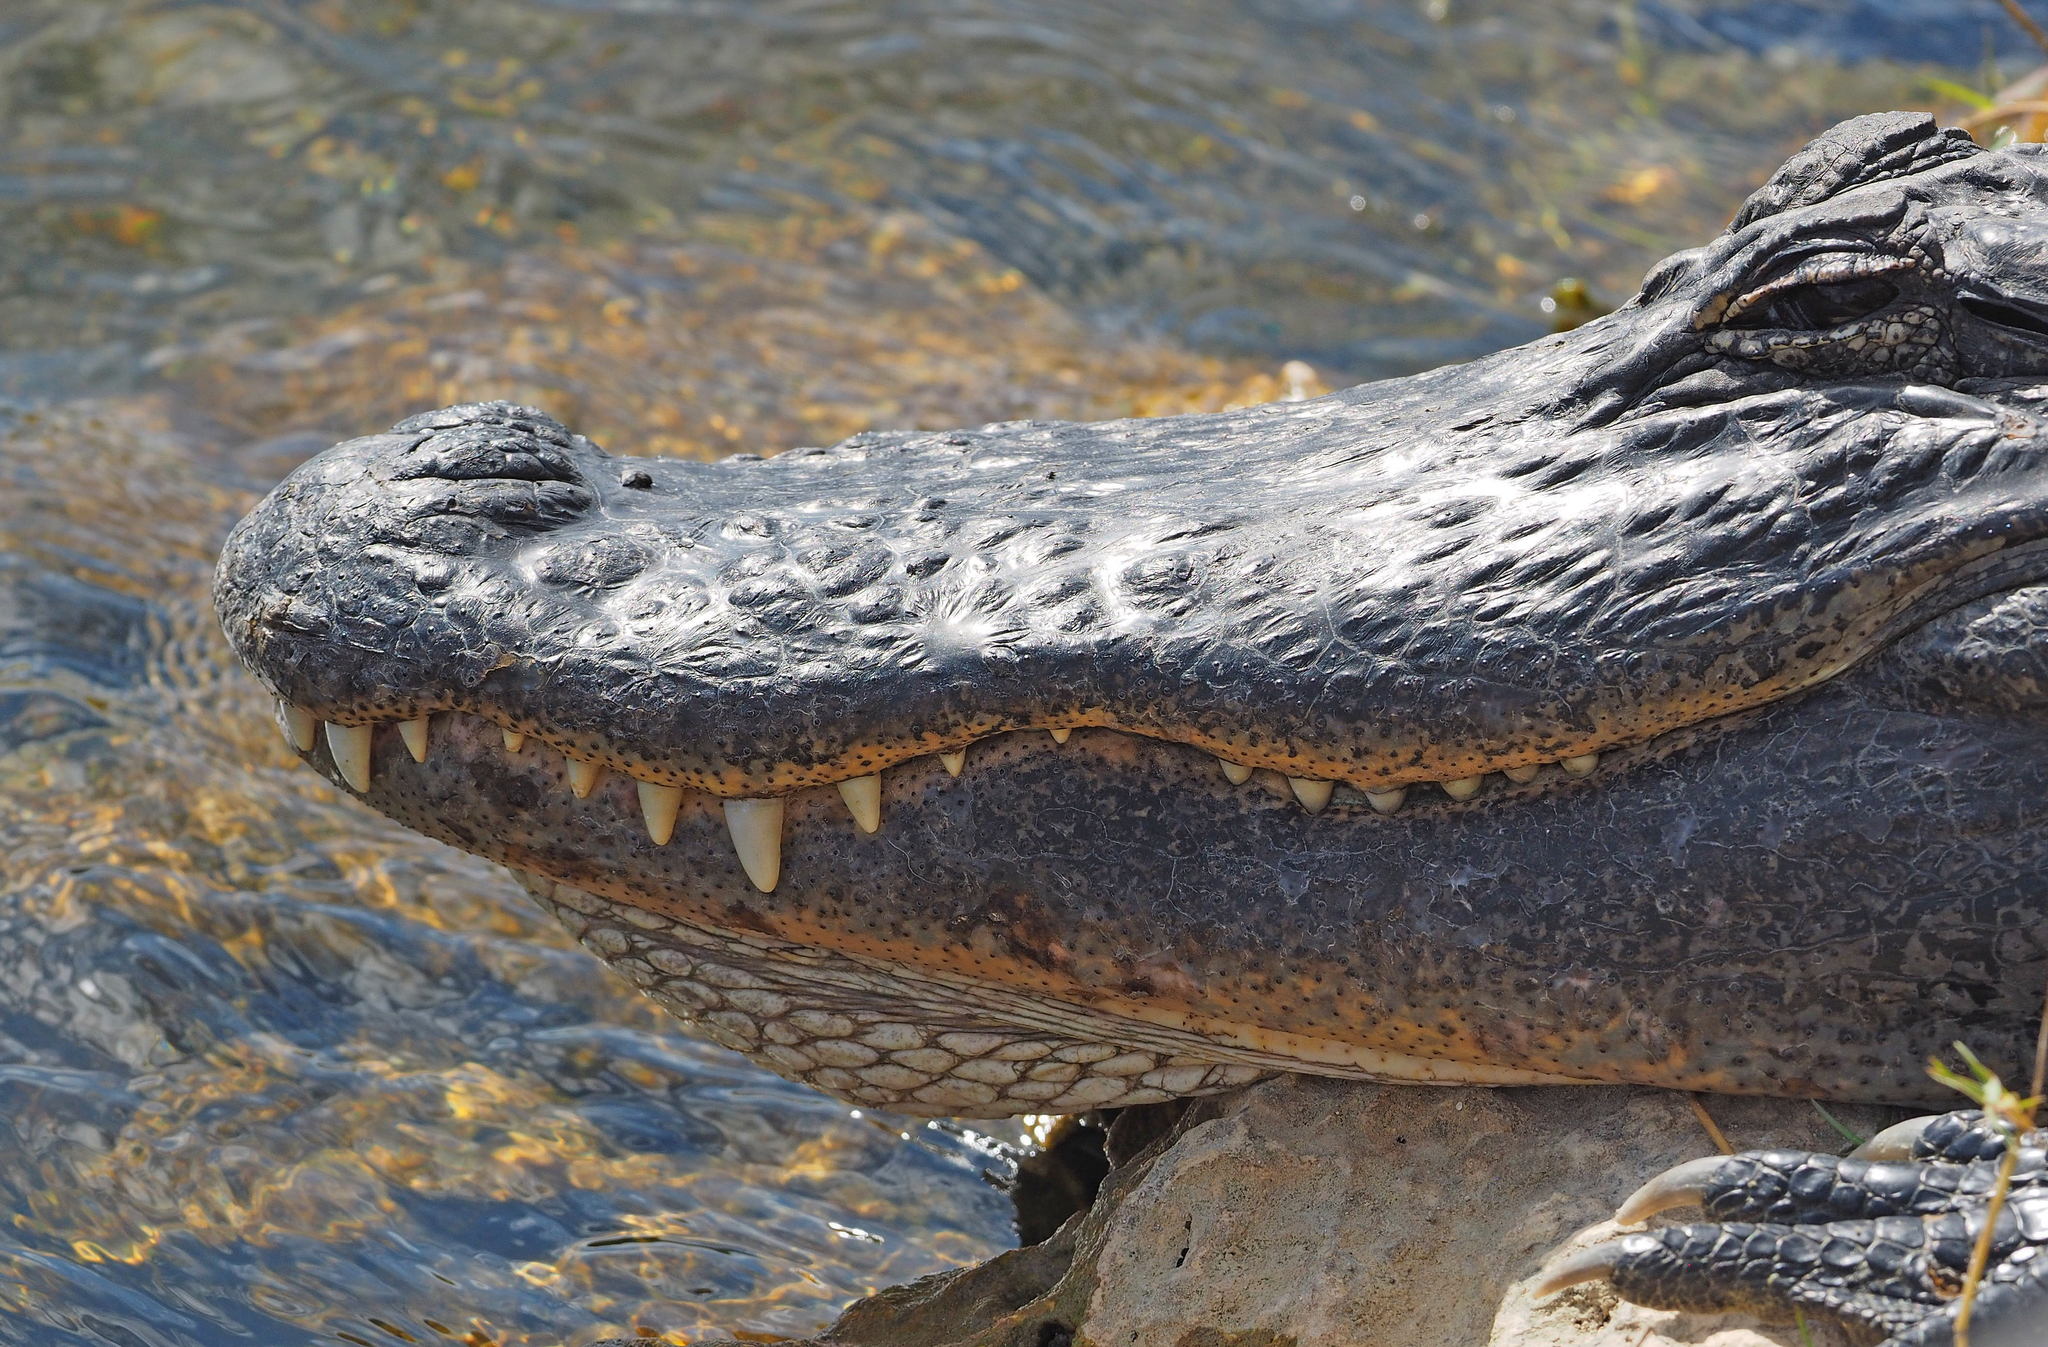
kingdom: Animalia
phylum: Chordata
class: Crocodylia
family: Alligatoridae
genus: Alligator
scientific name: Alligator mississippiensis
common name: American alligator
